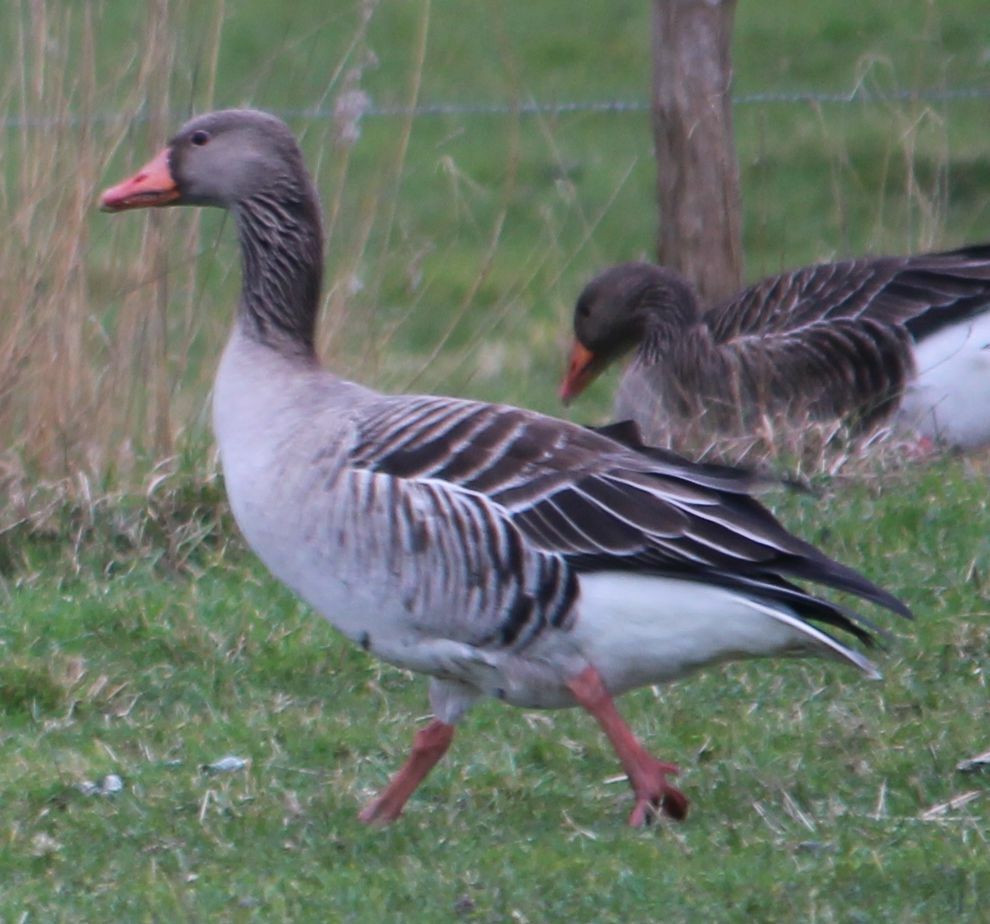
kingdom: Animalia
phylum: Chordata
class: Aves
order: Anseriformes
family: Anatidae
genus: Anser
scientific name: Anser anser
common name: Greylag goose
